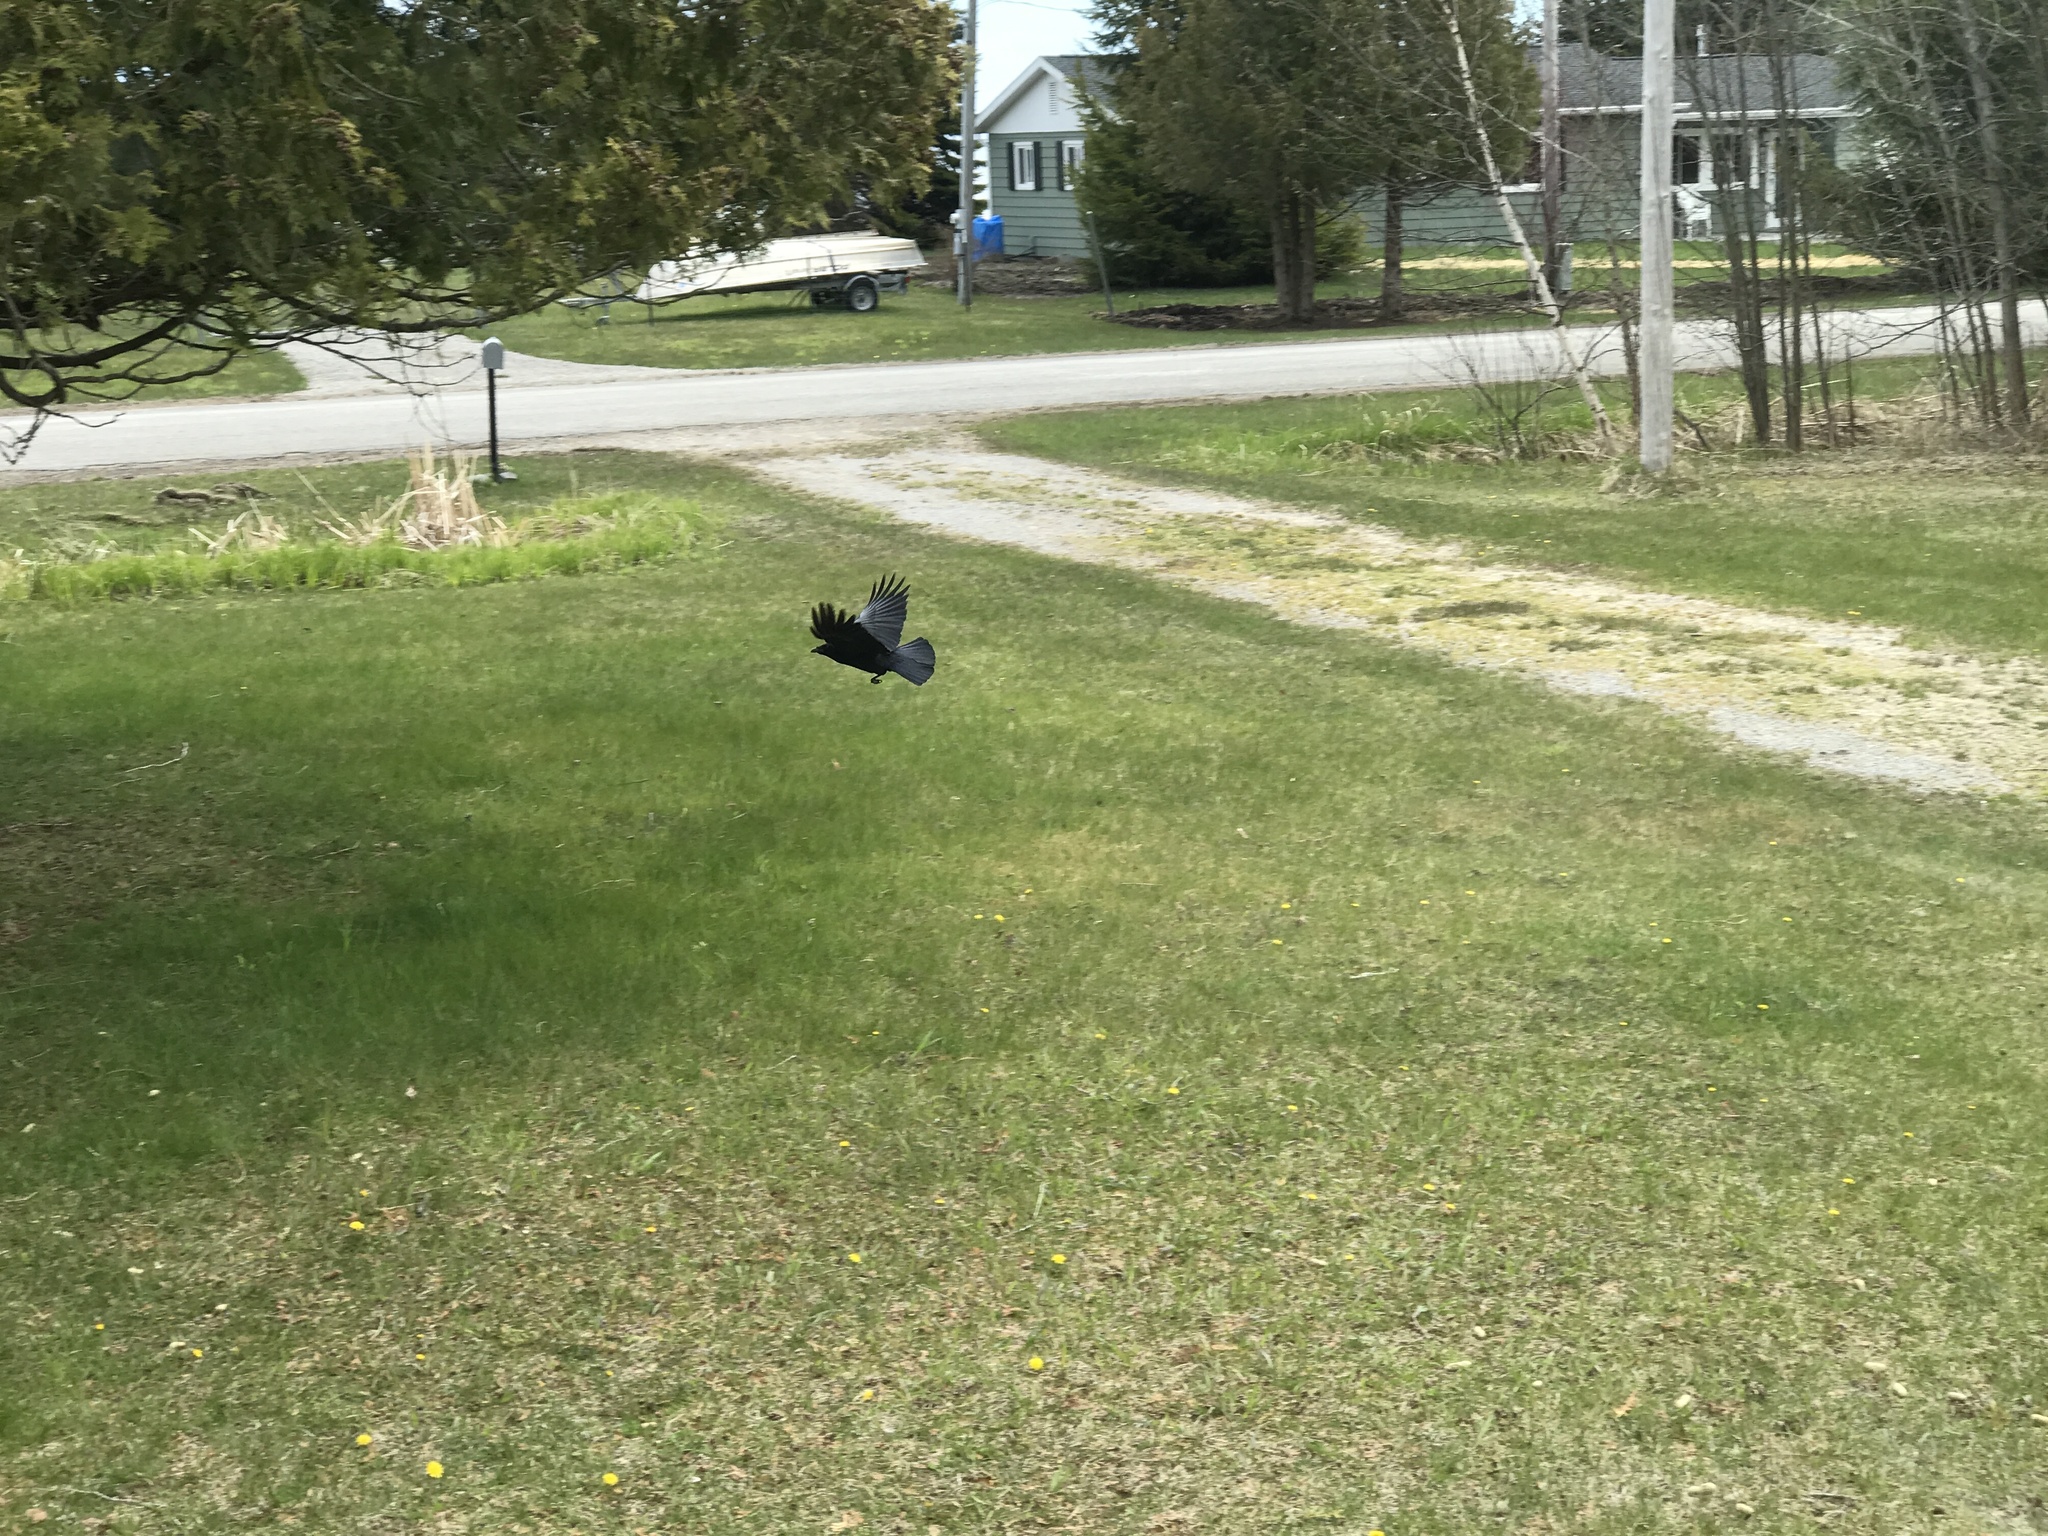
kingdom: Animalia
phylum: Chordata
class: Aves
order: Passeriformes
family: Corvidae
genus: Corvus
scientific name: Corvus brachyrhynchos
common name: American crow
